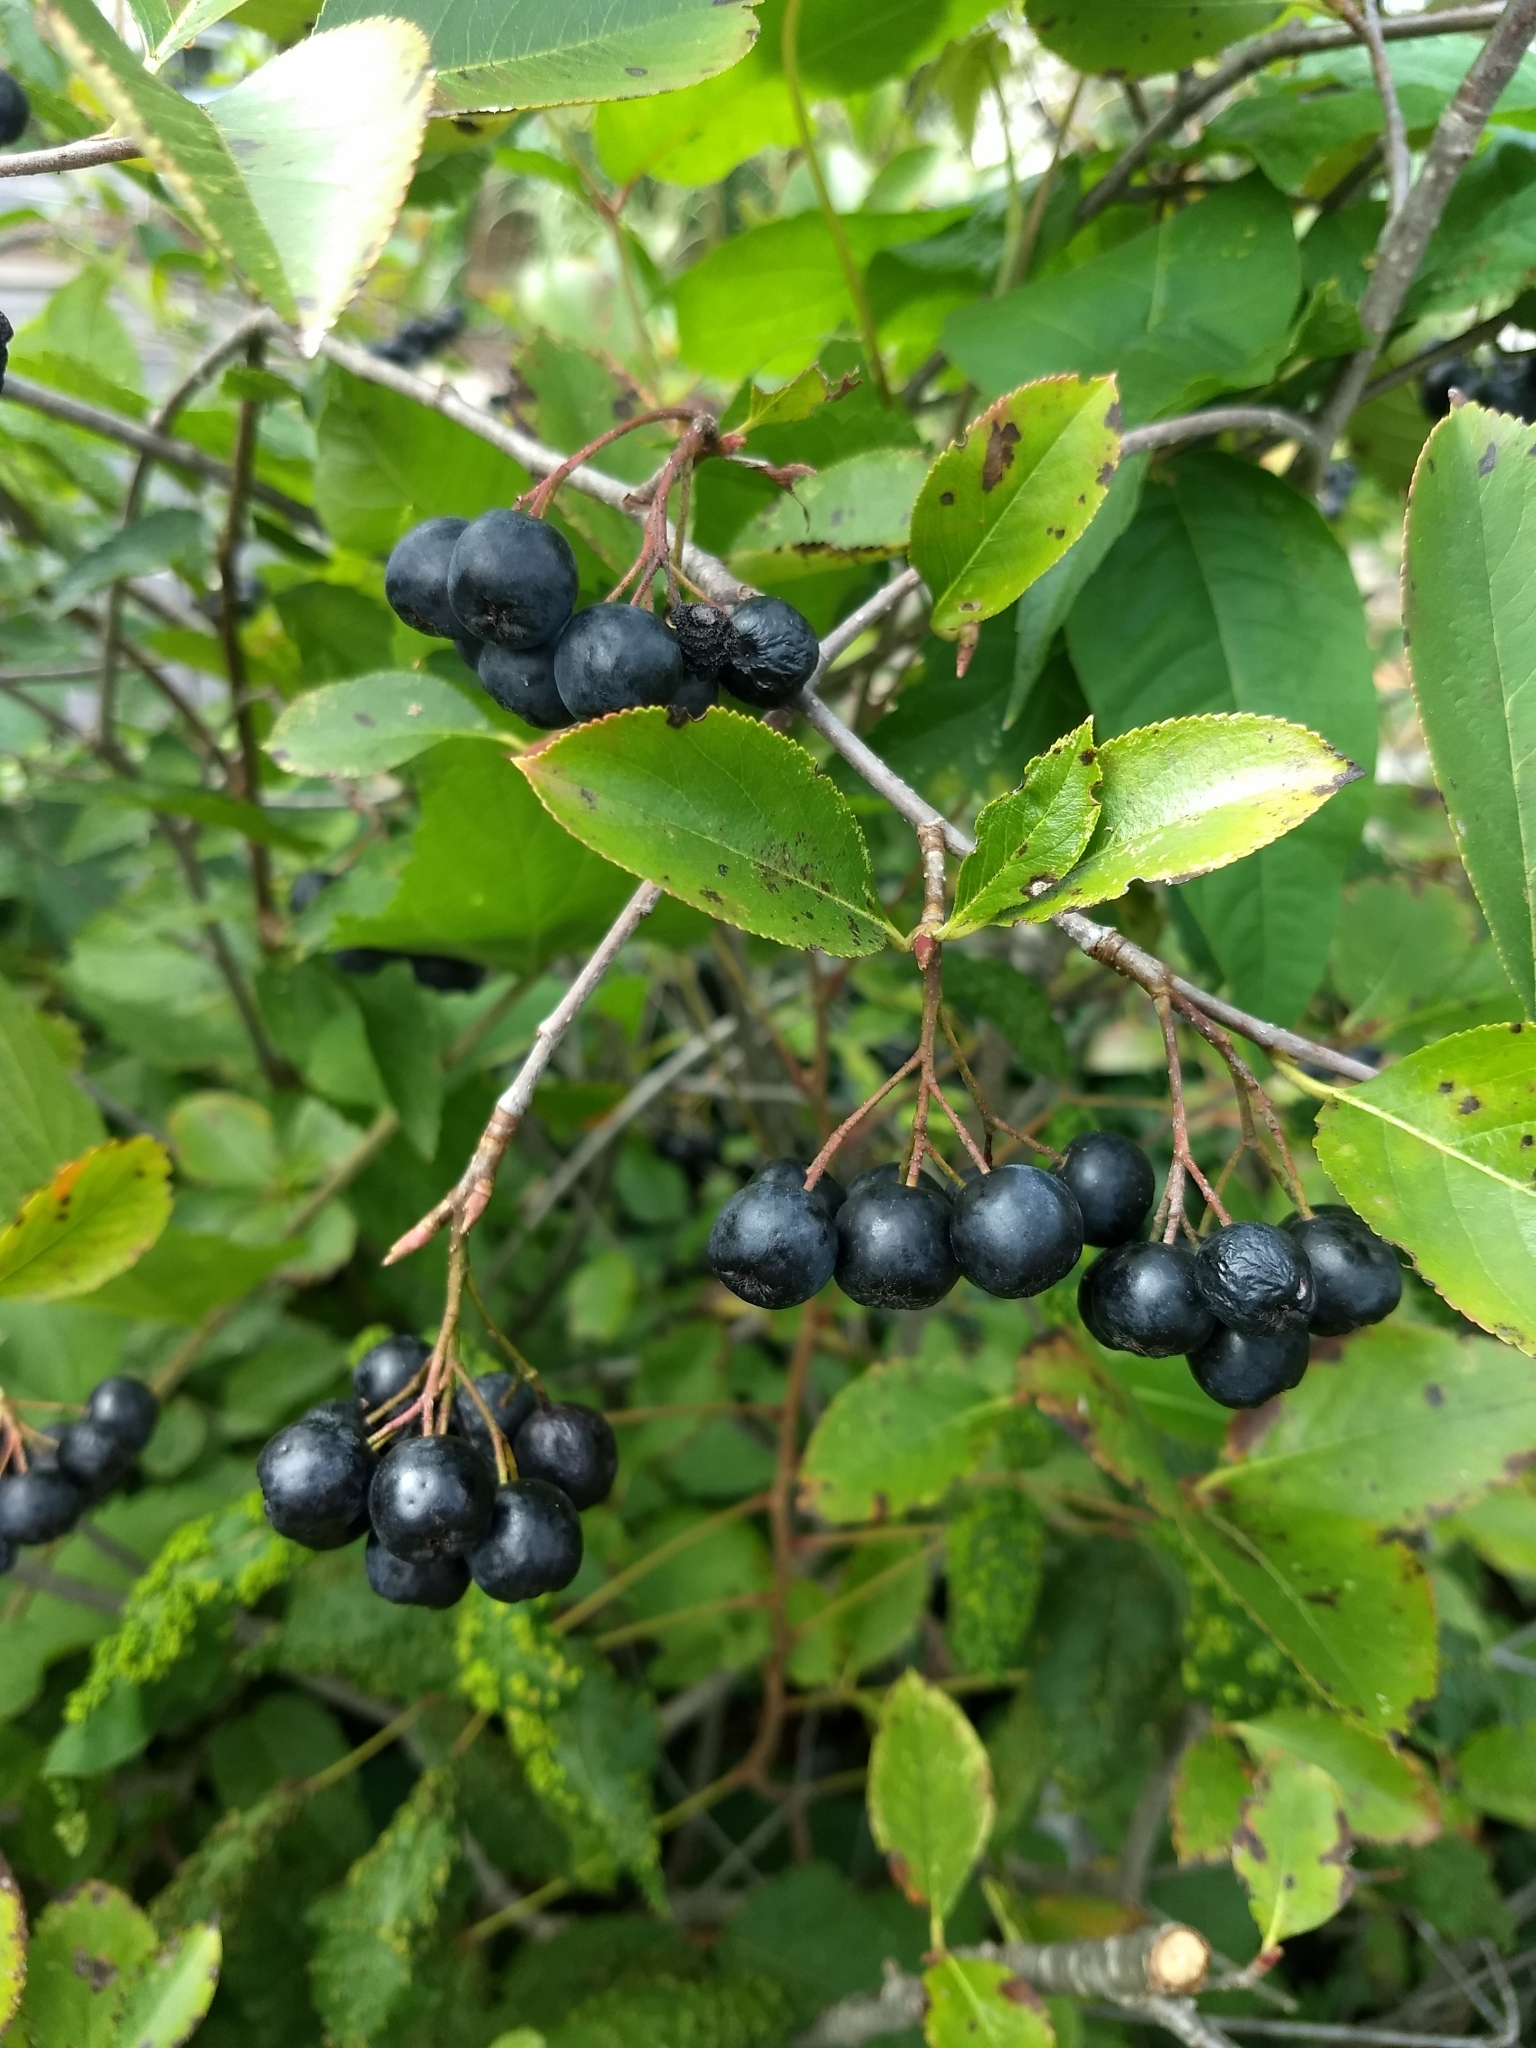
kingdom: Plantae
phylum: Tracheophyta
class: Magnoliopsida
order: Rosales
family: Rosaceae
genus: Aronia
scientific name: Aronia melanocarpa
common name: Black chokeberry
